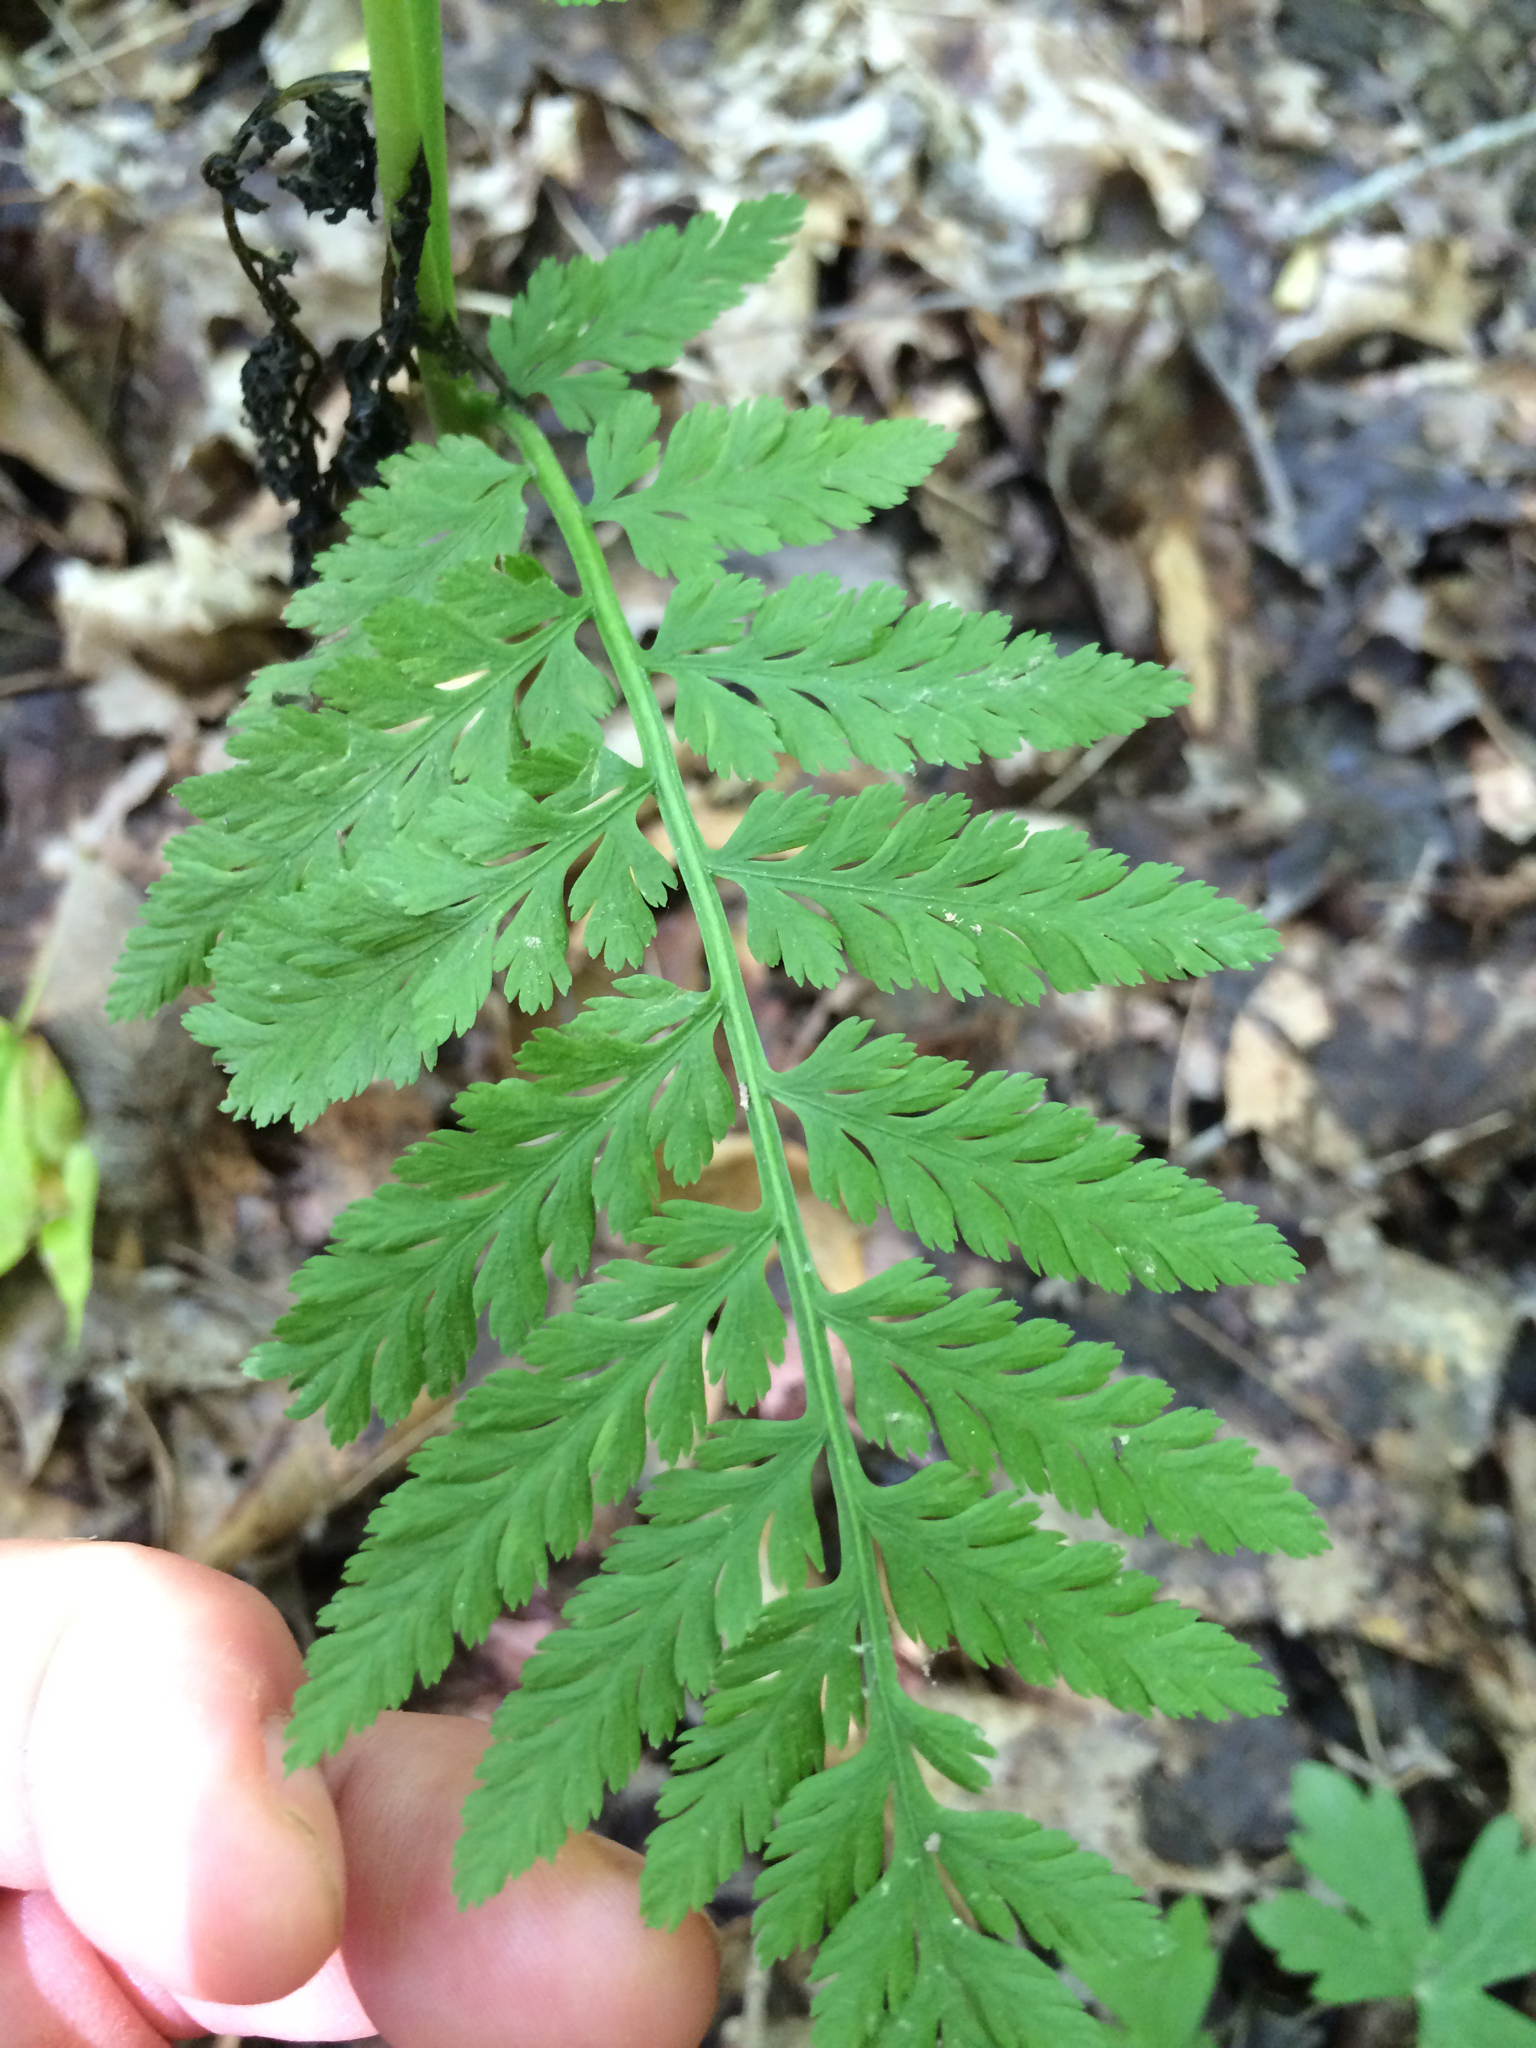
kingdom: Plantae
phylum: Tracheophyta
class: Polypodiopsida
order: Ophioglossales
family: Ophioglossaceae
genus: Botrypus
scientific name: Botrypus virginianus
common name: Common grapefern
